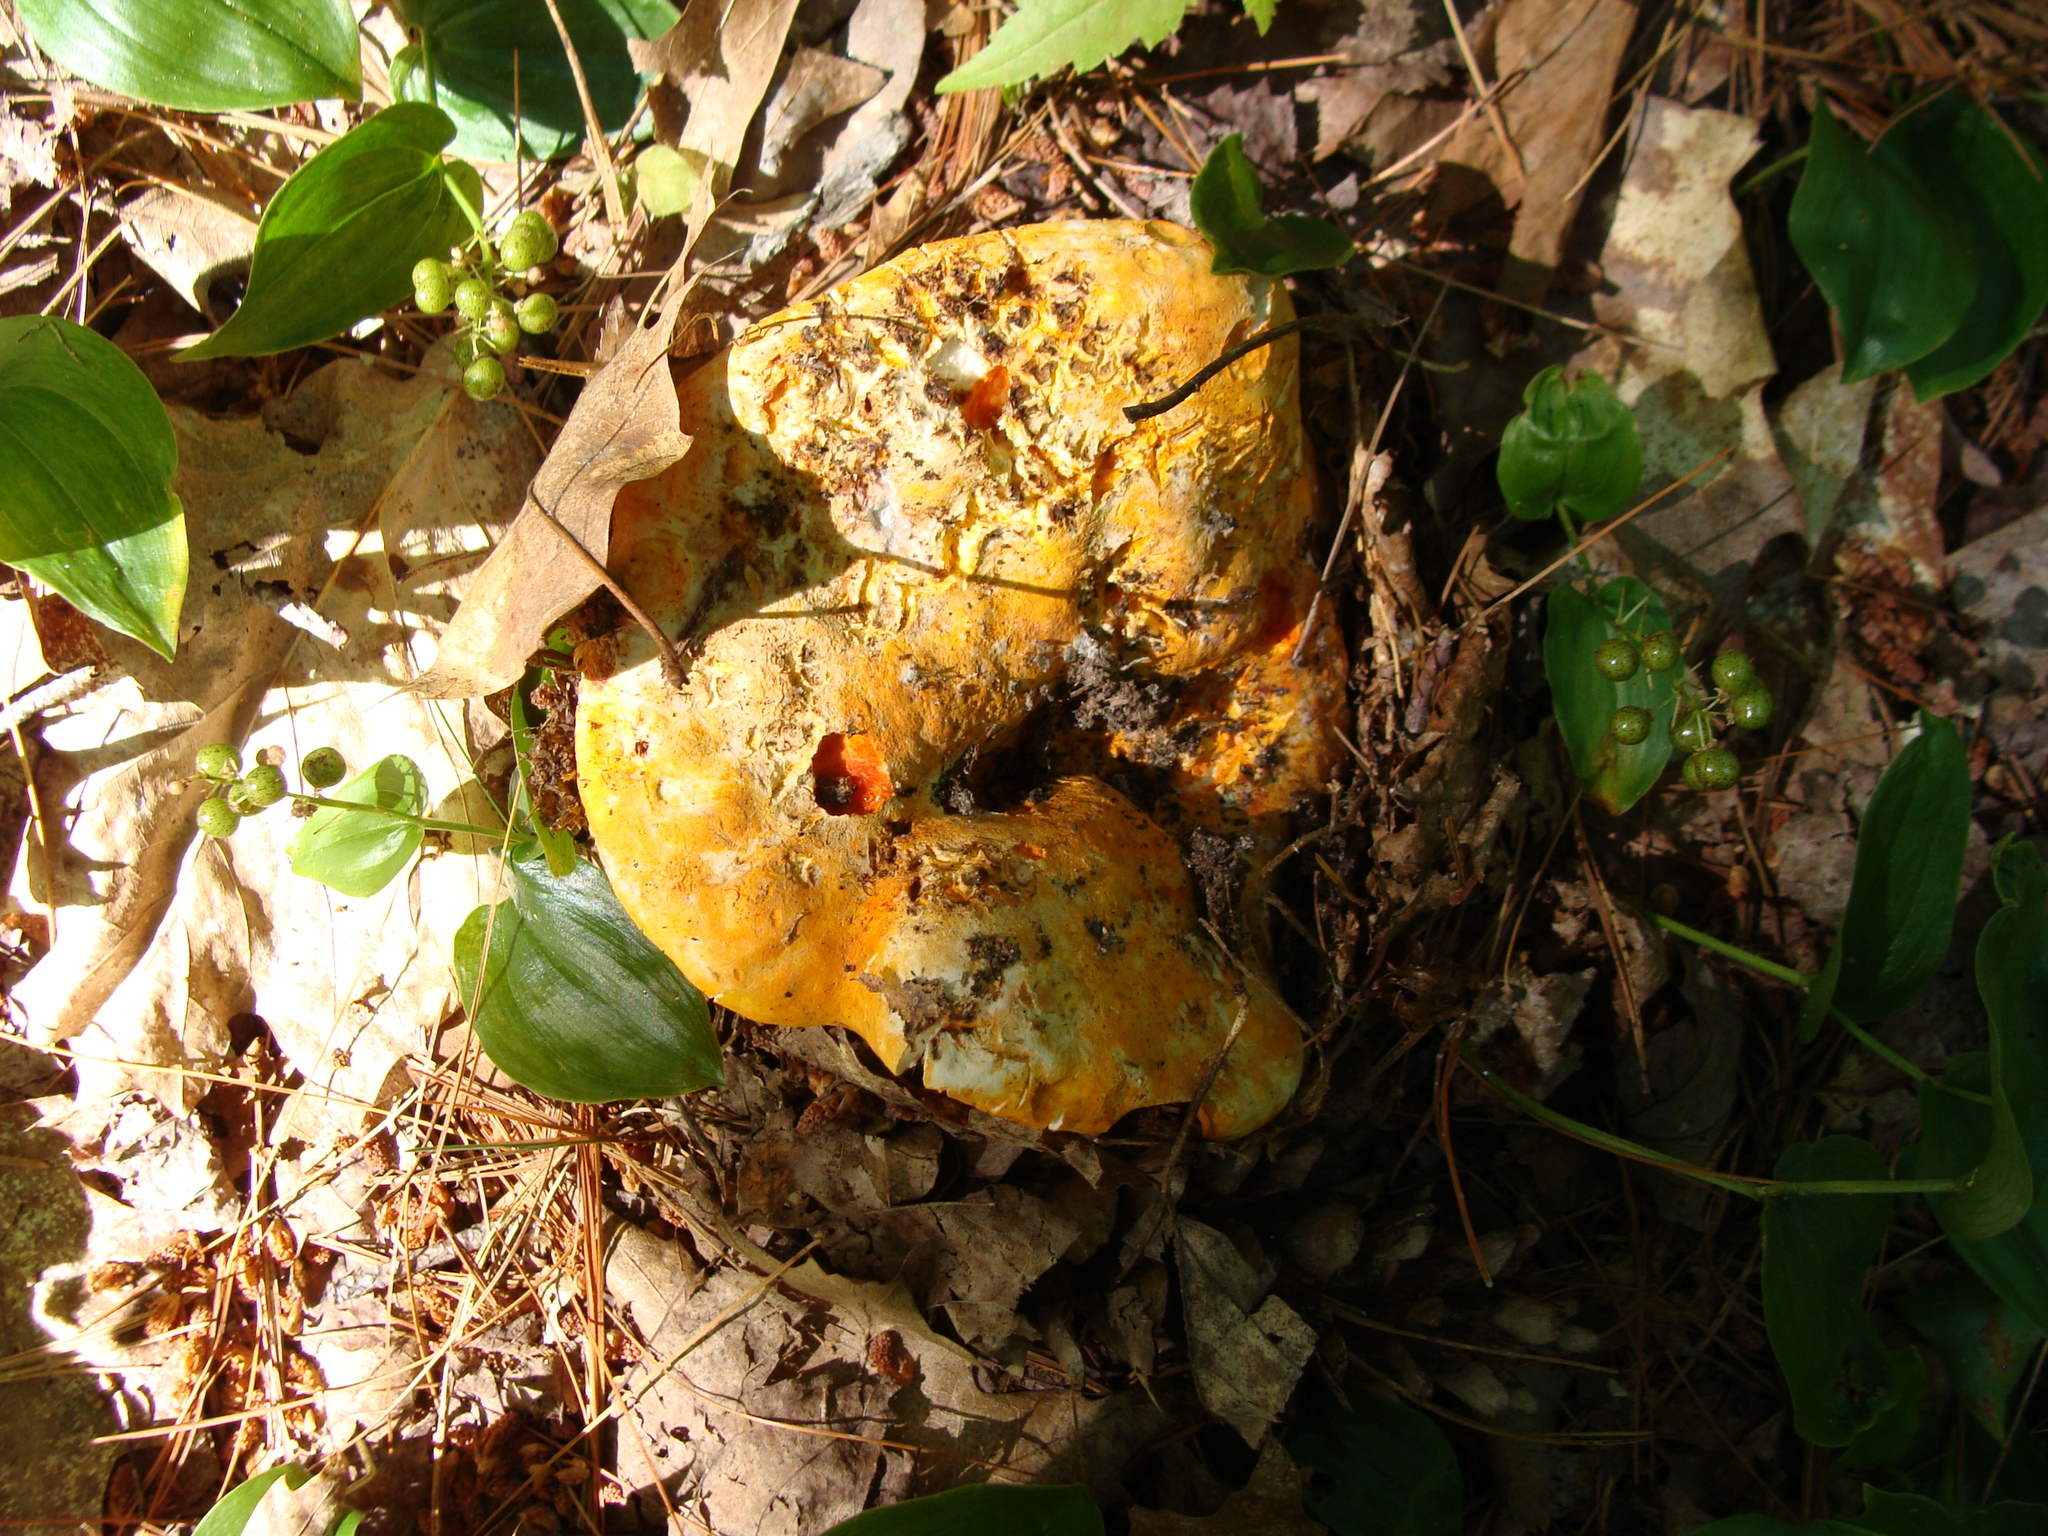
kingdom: Fungi
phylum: Ascomycota
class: Sordariomycetes
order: Hypocreales
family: Hypocreaceae
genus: Hypomyces
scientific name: Hypomyces lactifluorum
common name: Lobster mushroom
